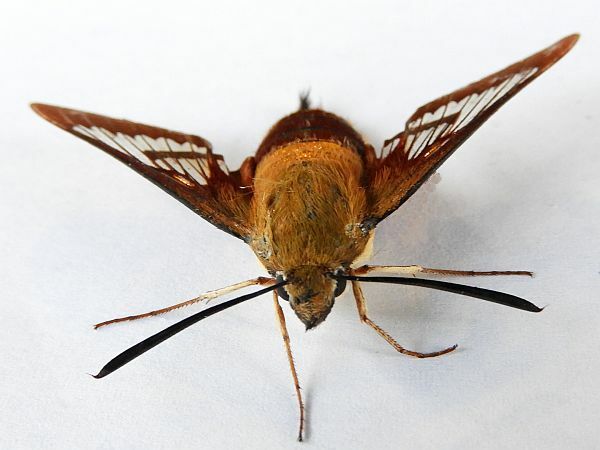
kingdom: Animalia
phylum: Arthropoda
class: Insecta
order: Lepidoptera
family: Sphingidae
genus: Hemaris
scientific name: Hemaris thysbe
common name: Common clear-wing
